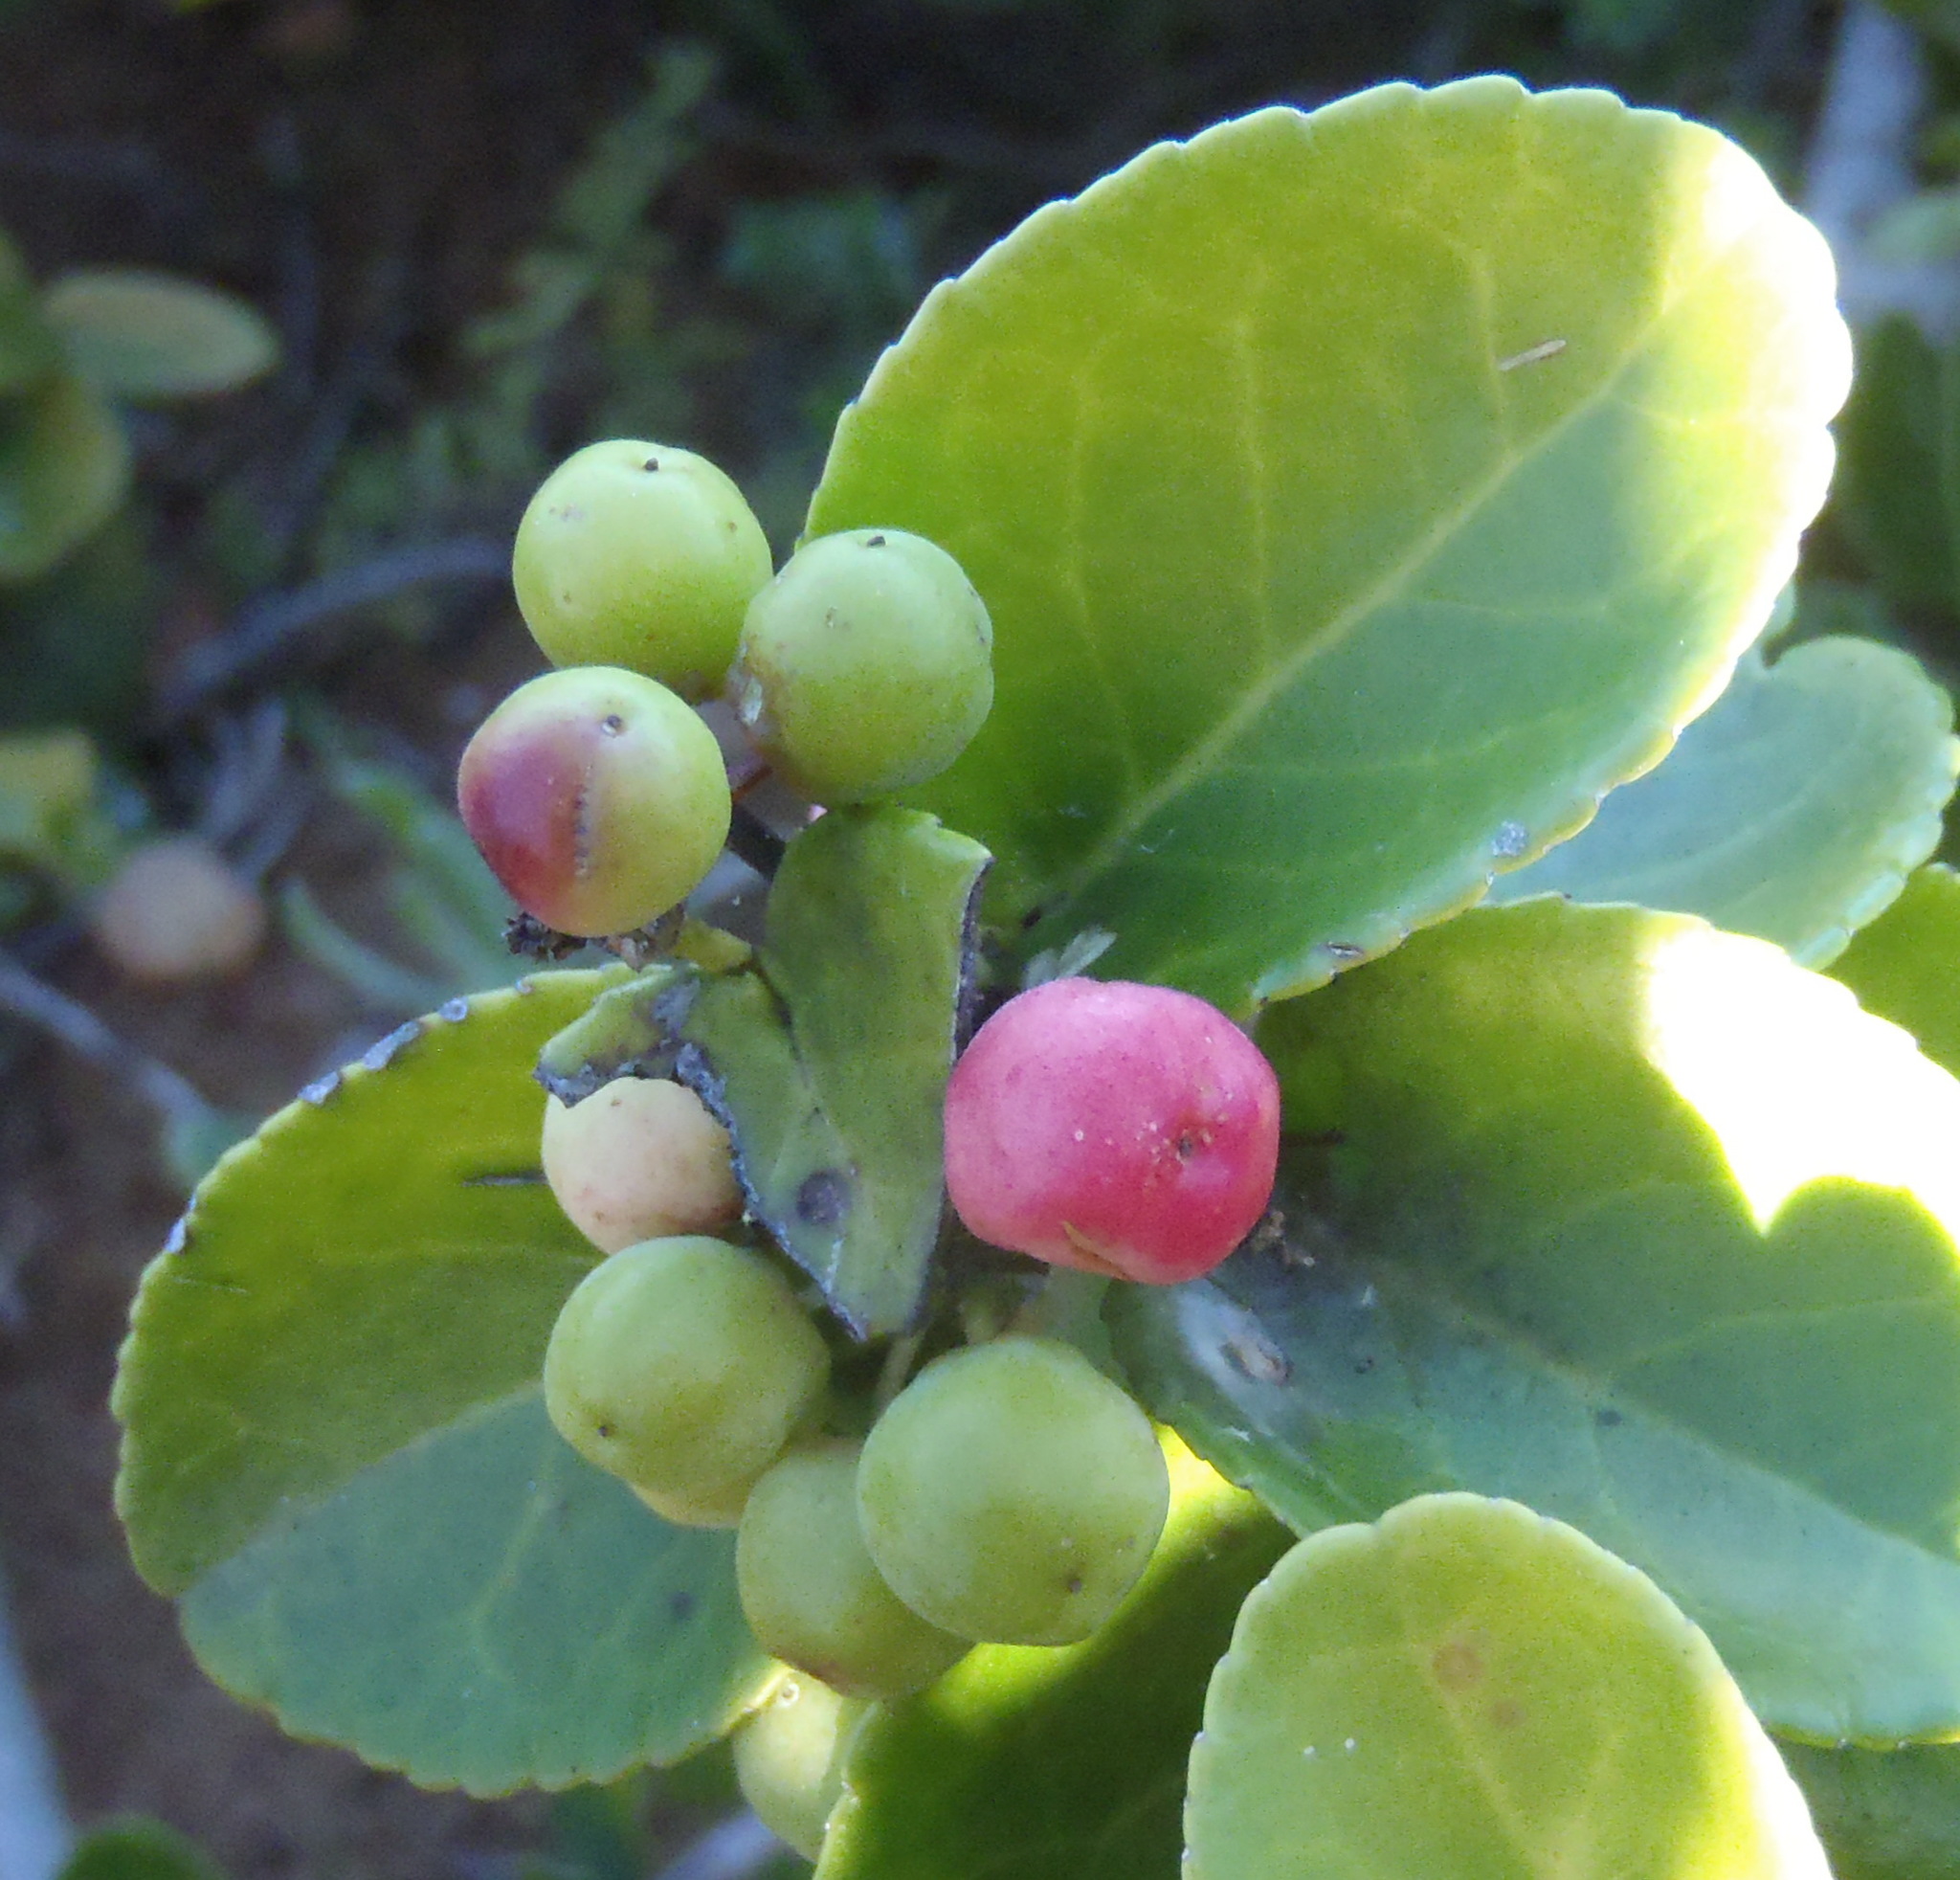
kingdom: Plantae
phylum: Tracheophyta
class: Magnoliopsida
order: Celastrales
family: Celastraceae
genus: Mystroxylon
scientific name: Mystroxylon aethiopicum
